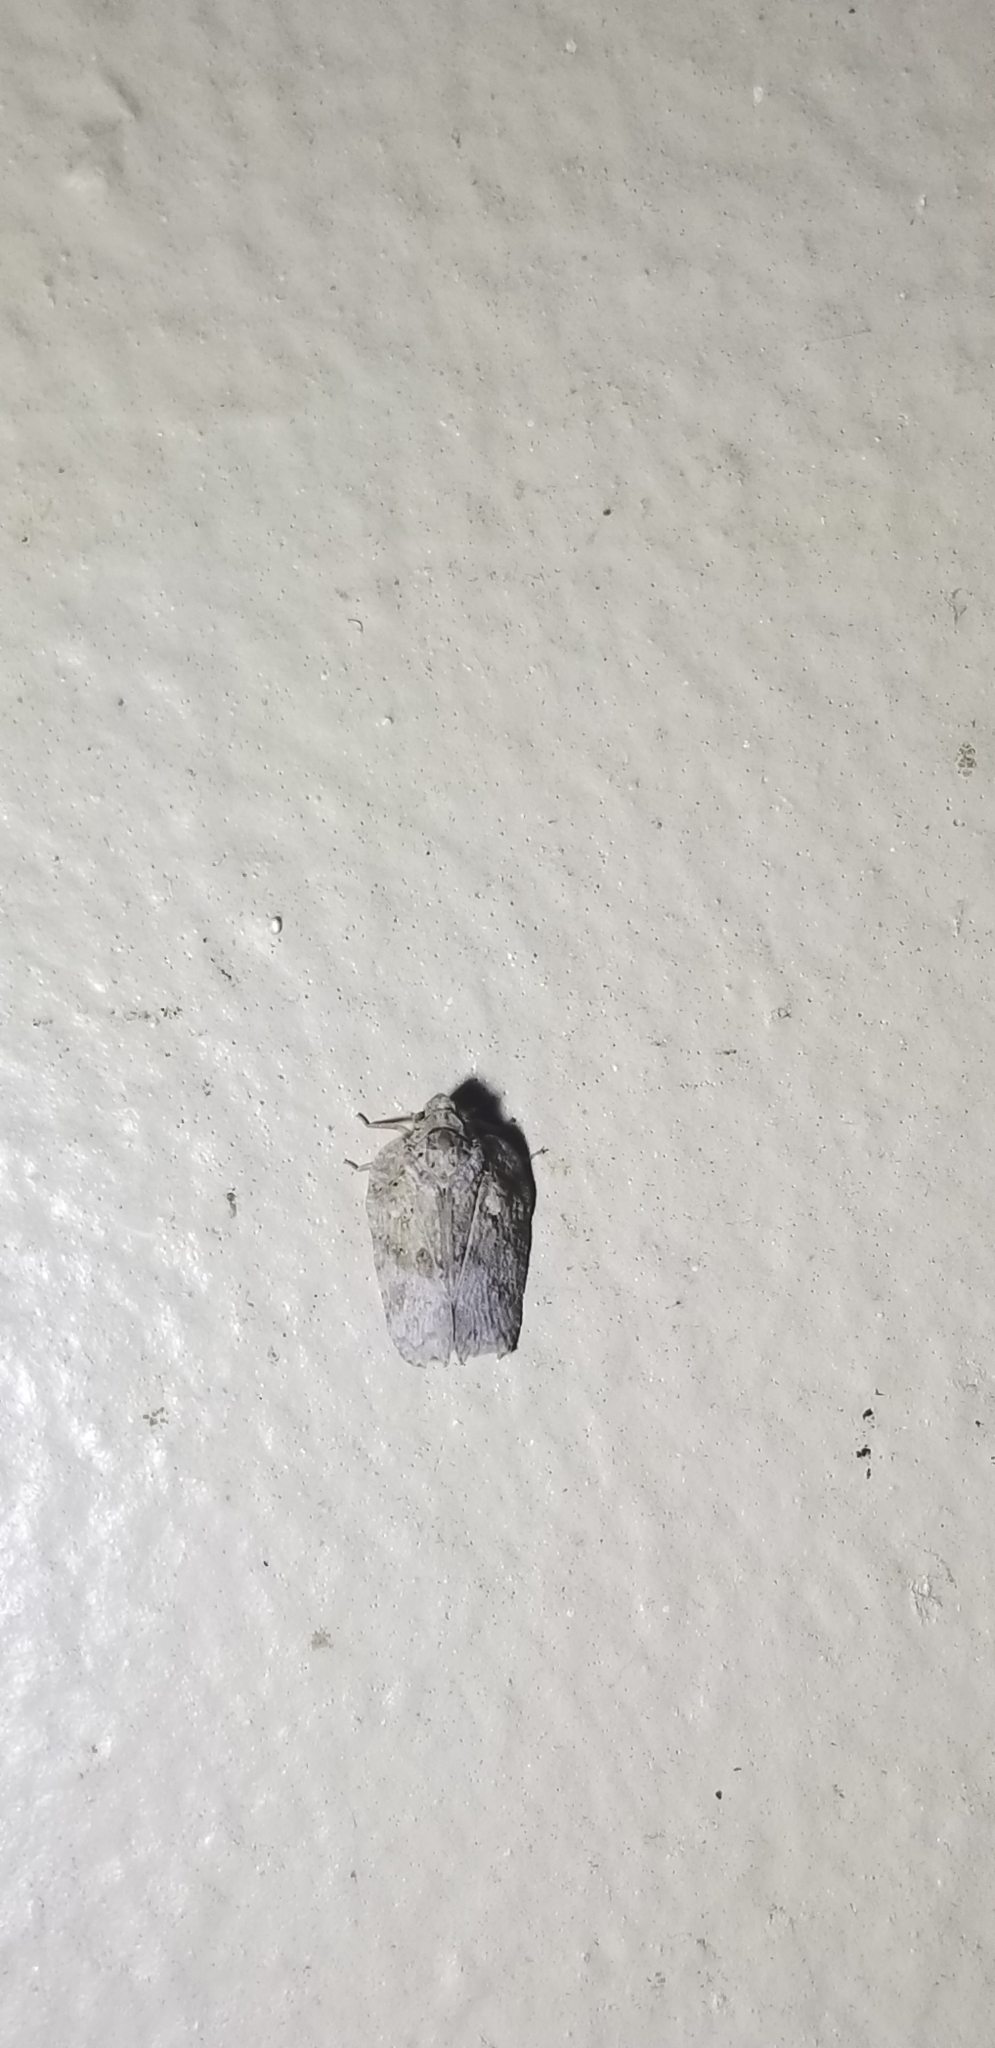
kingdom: Animalia
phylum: Arthropoda
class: Insecta
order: Hemiptera
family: Flatidae
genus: Flatoidinus
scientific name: Flatoidinus punctatus
